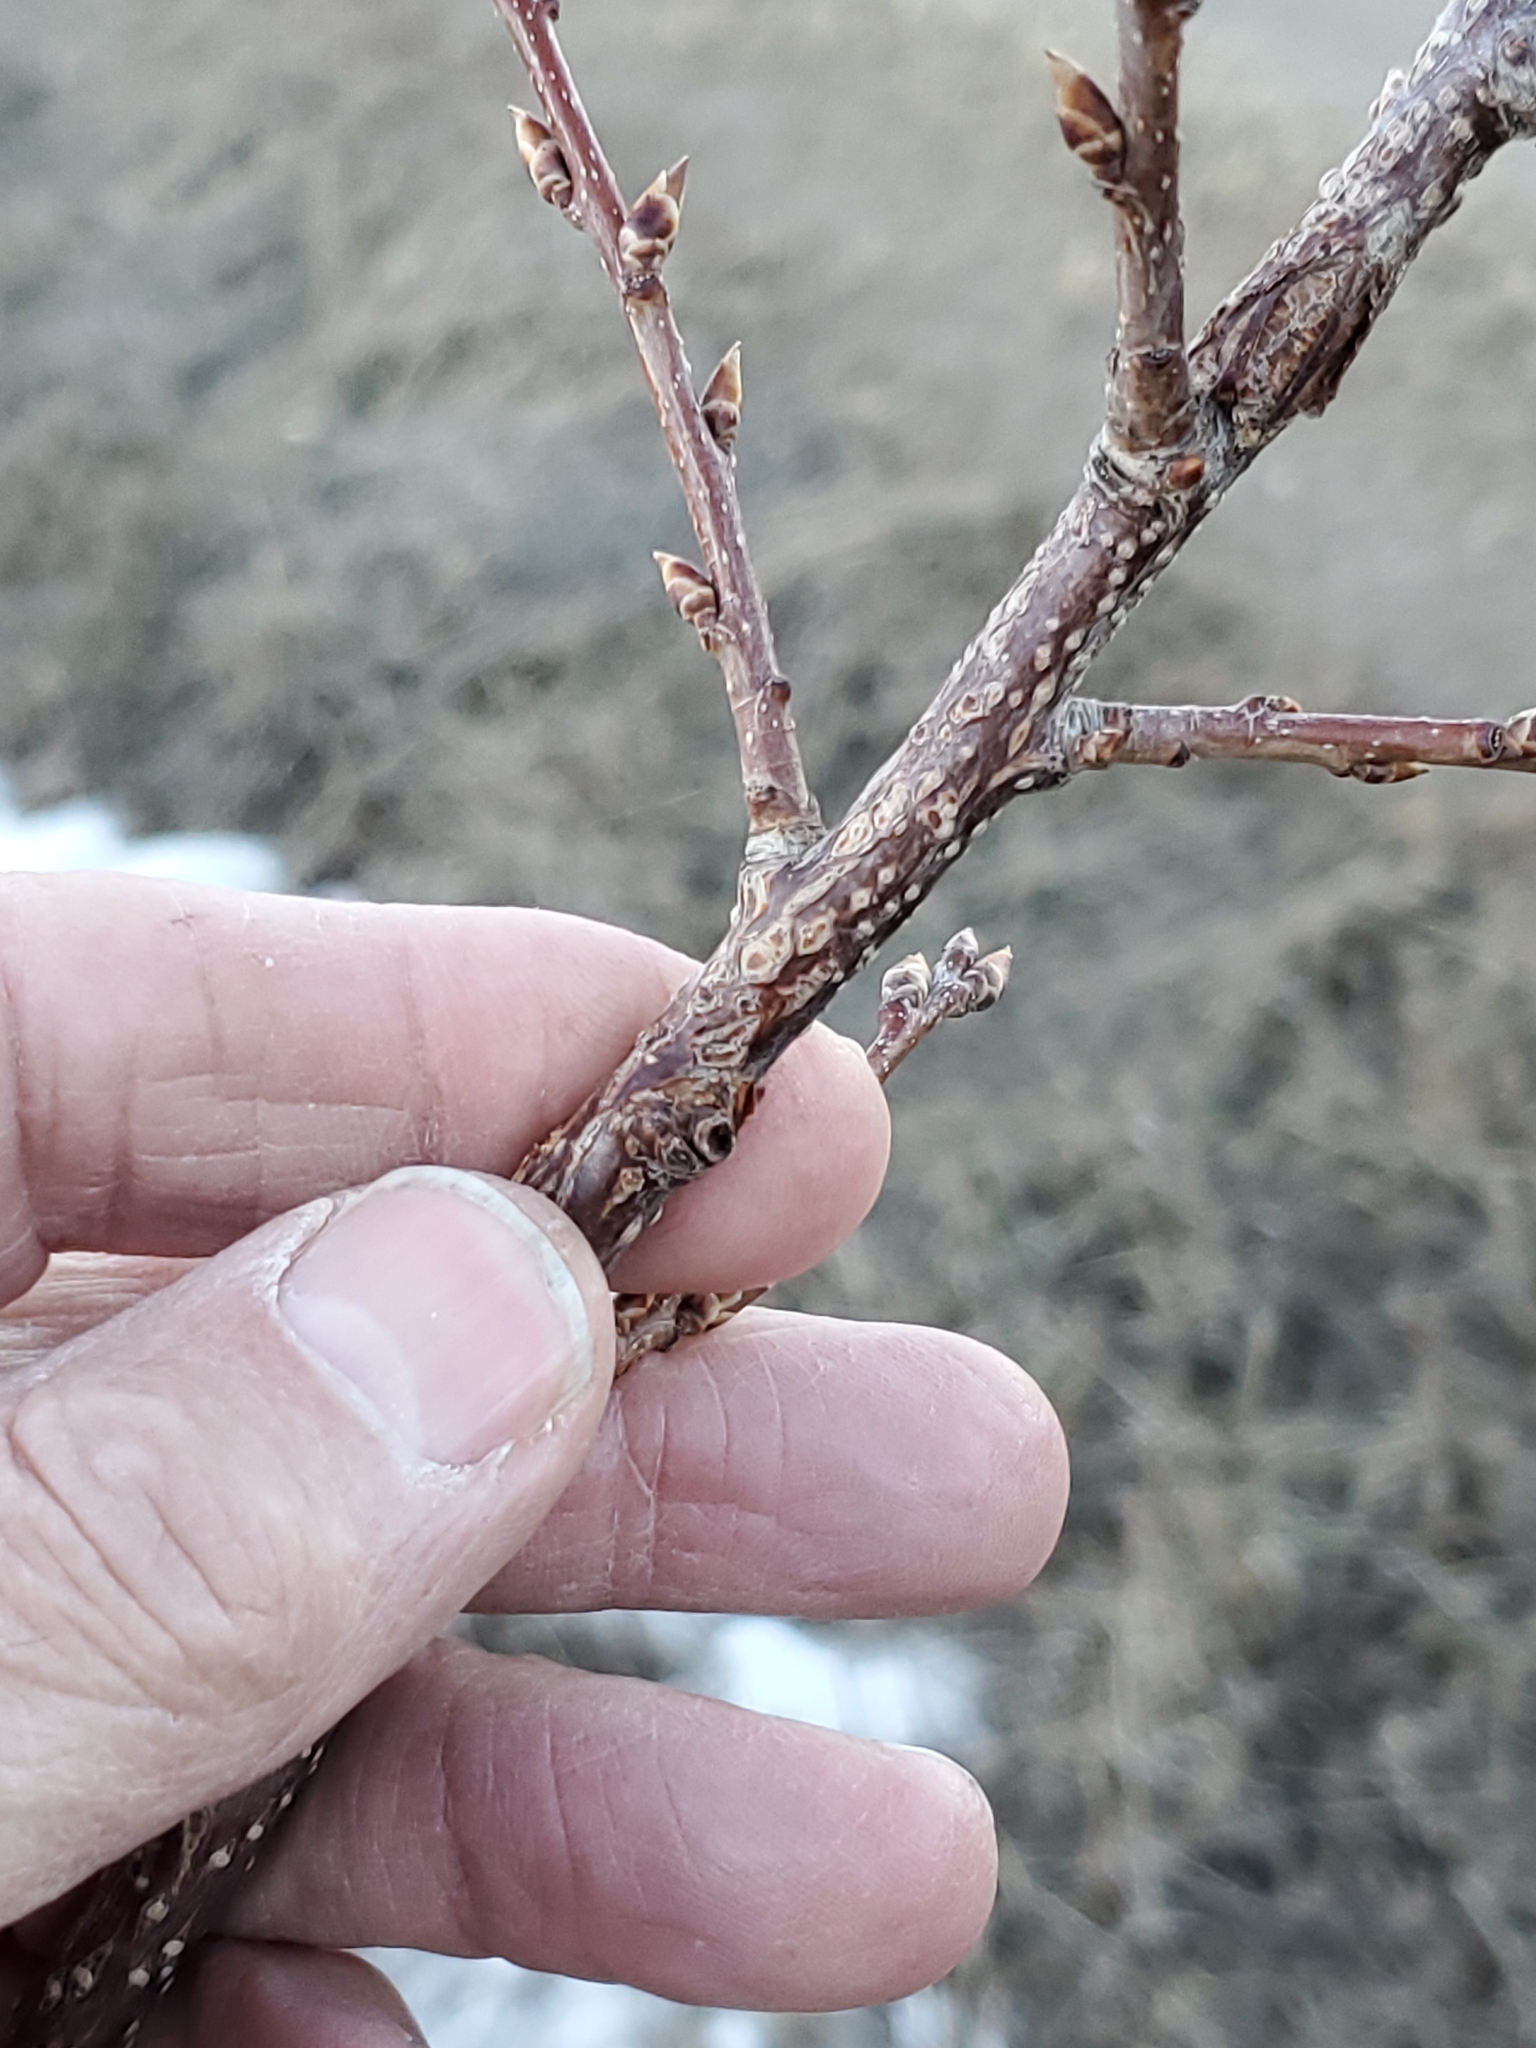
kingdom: Plantae
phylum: Tracheophyta
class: Magnoliopsida
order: Rosales
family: Rosaceae
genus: Prunus
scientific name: Prunus virginiana
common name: Chokecherry
